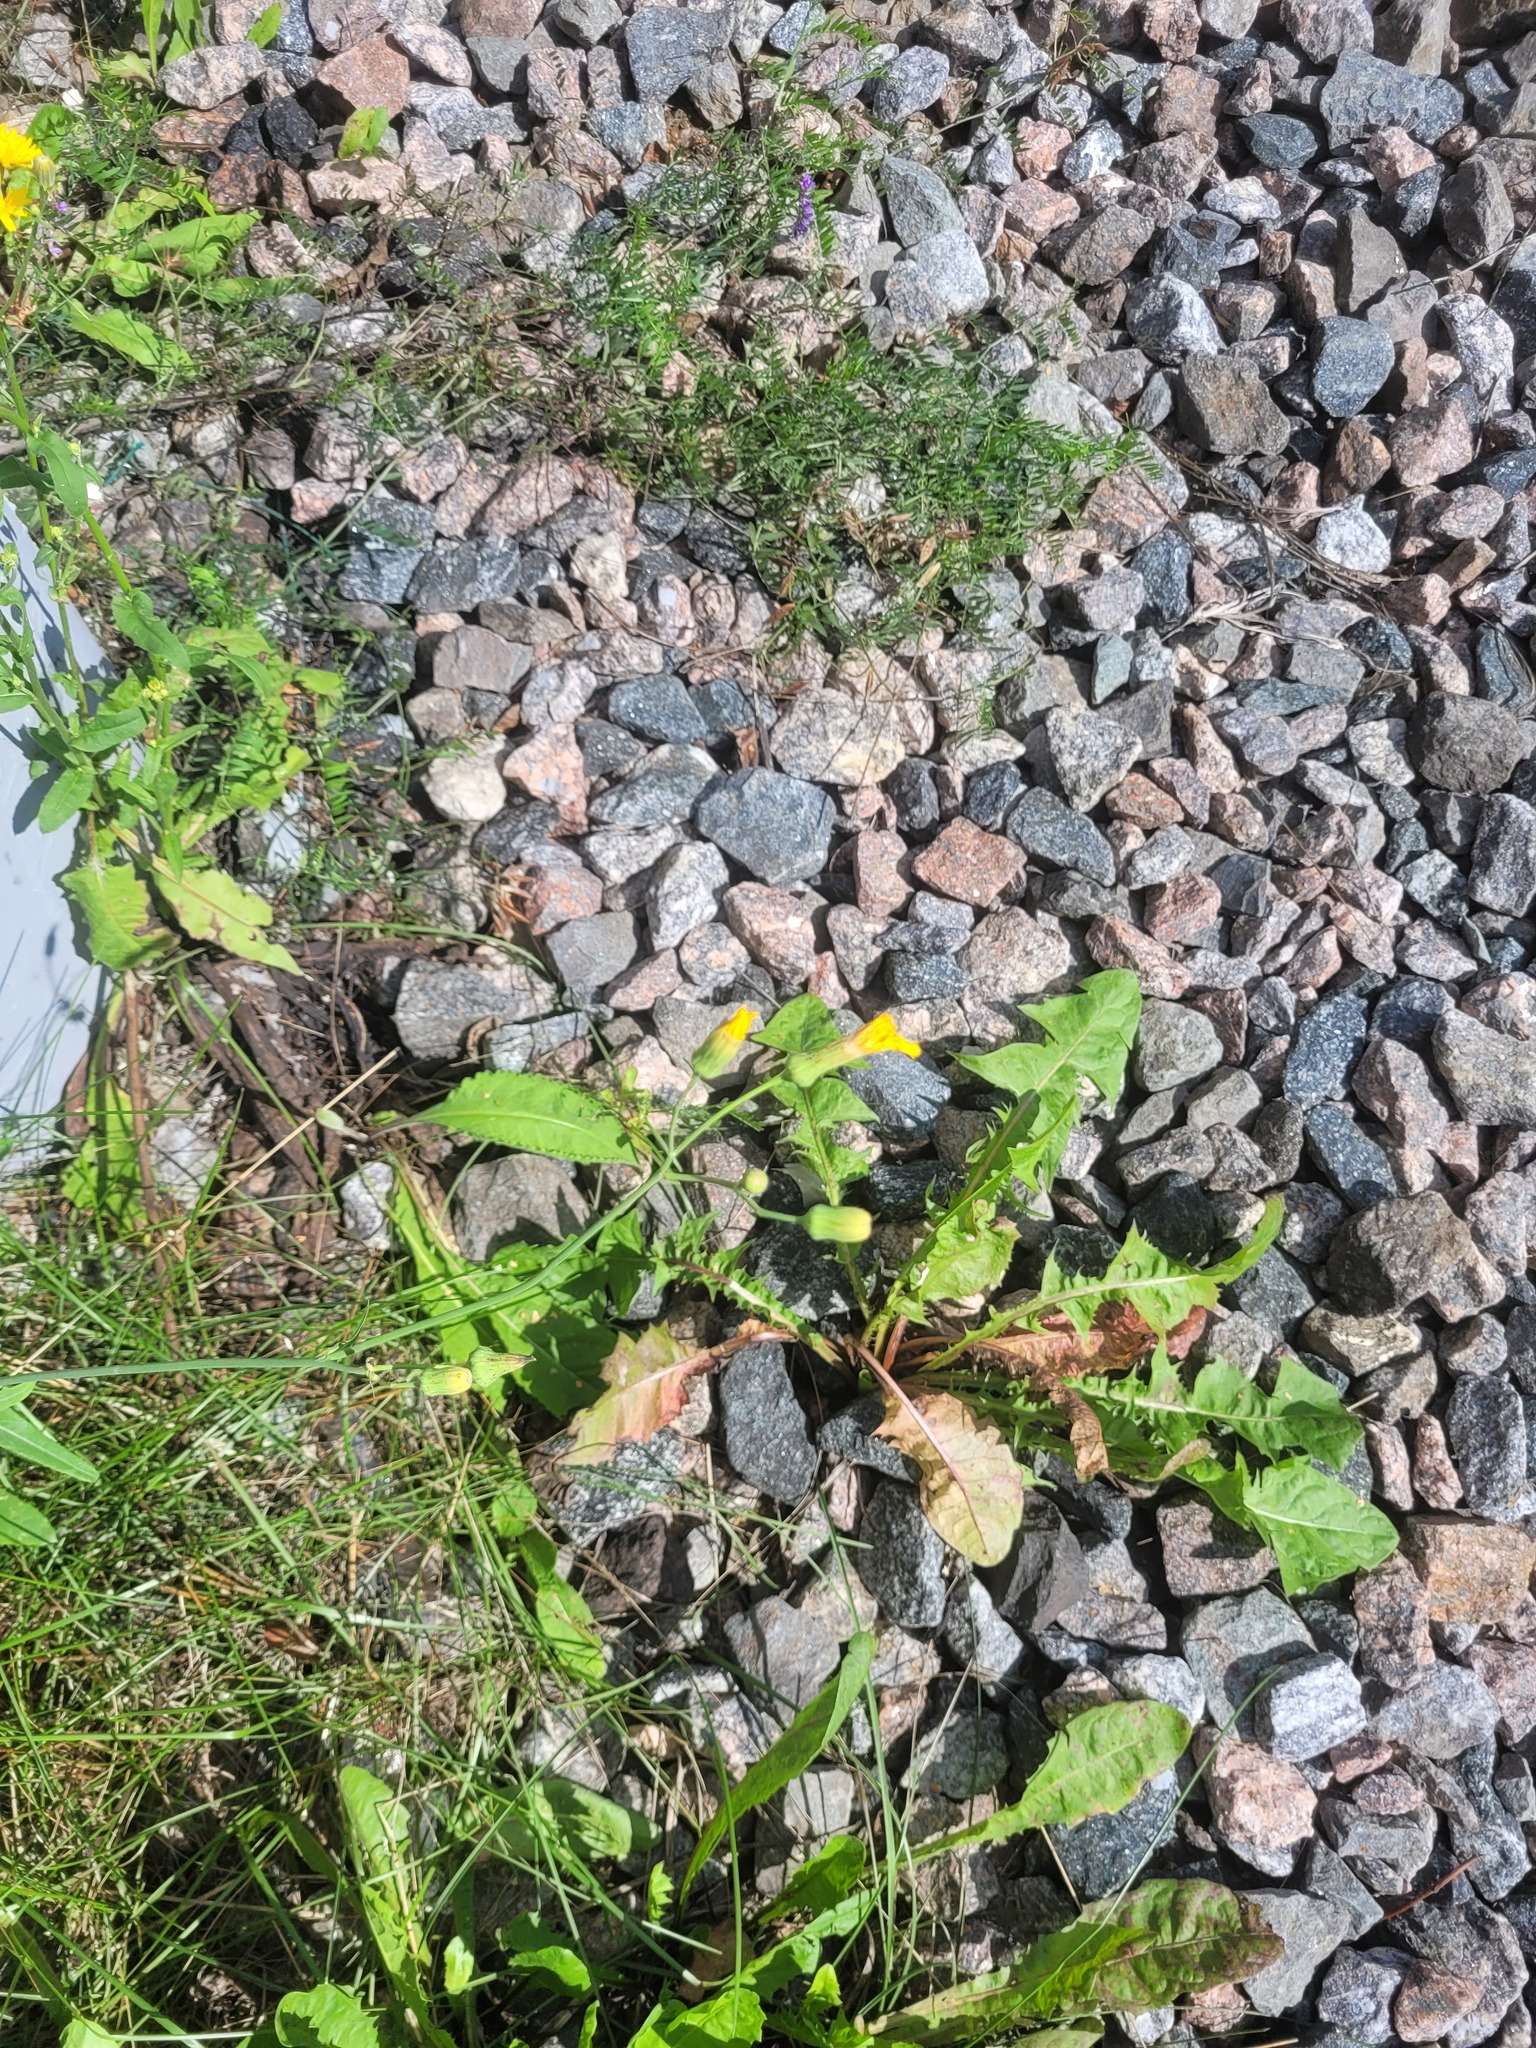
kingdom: Plantae
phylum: Tracheophyta
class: Magnoliopsida
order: Asterales
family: Asteraceae
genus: Sonchus
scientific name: Sonchus arvensis
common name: Perennial sow-thistle
